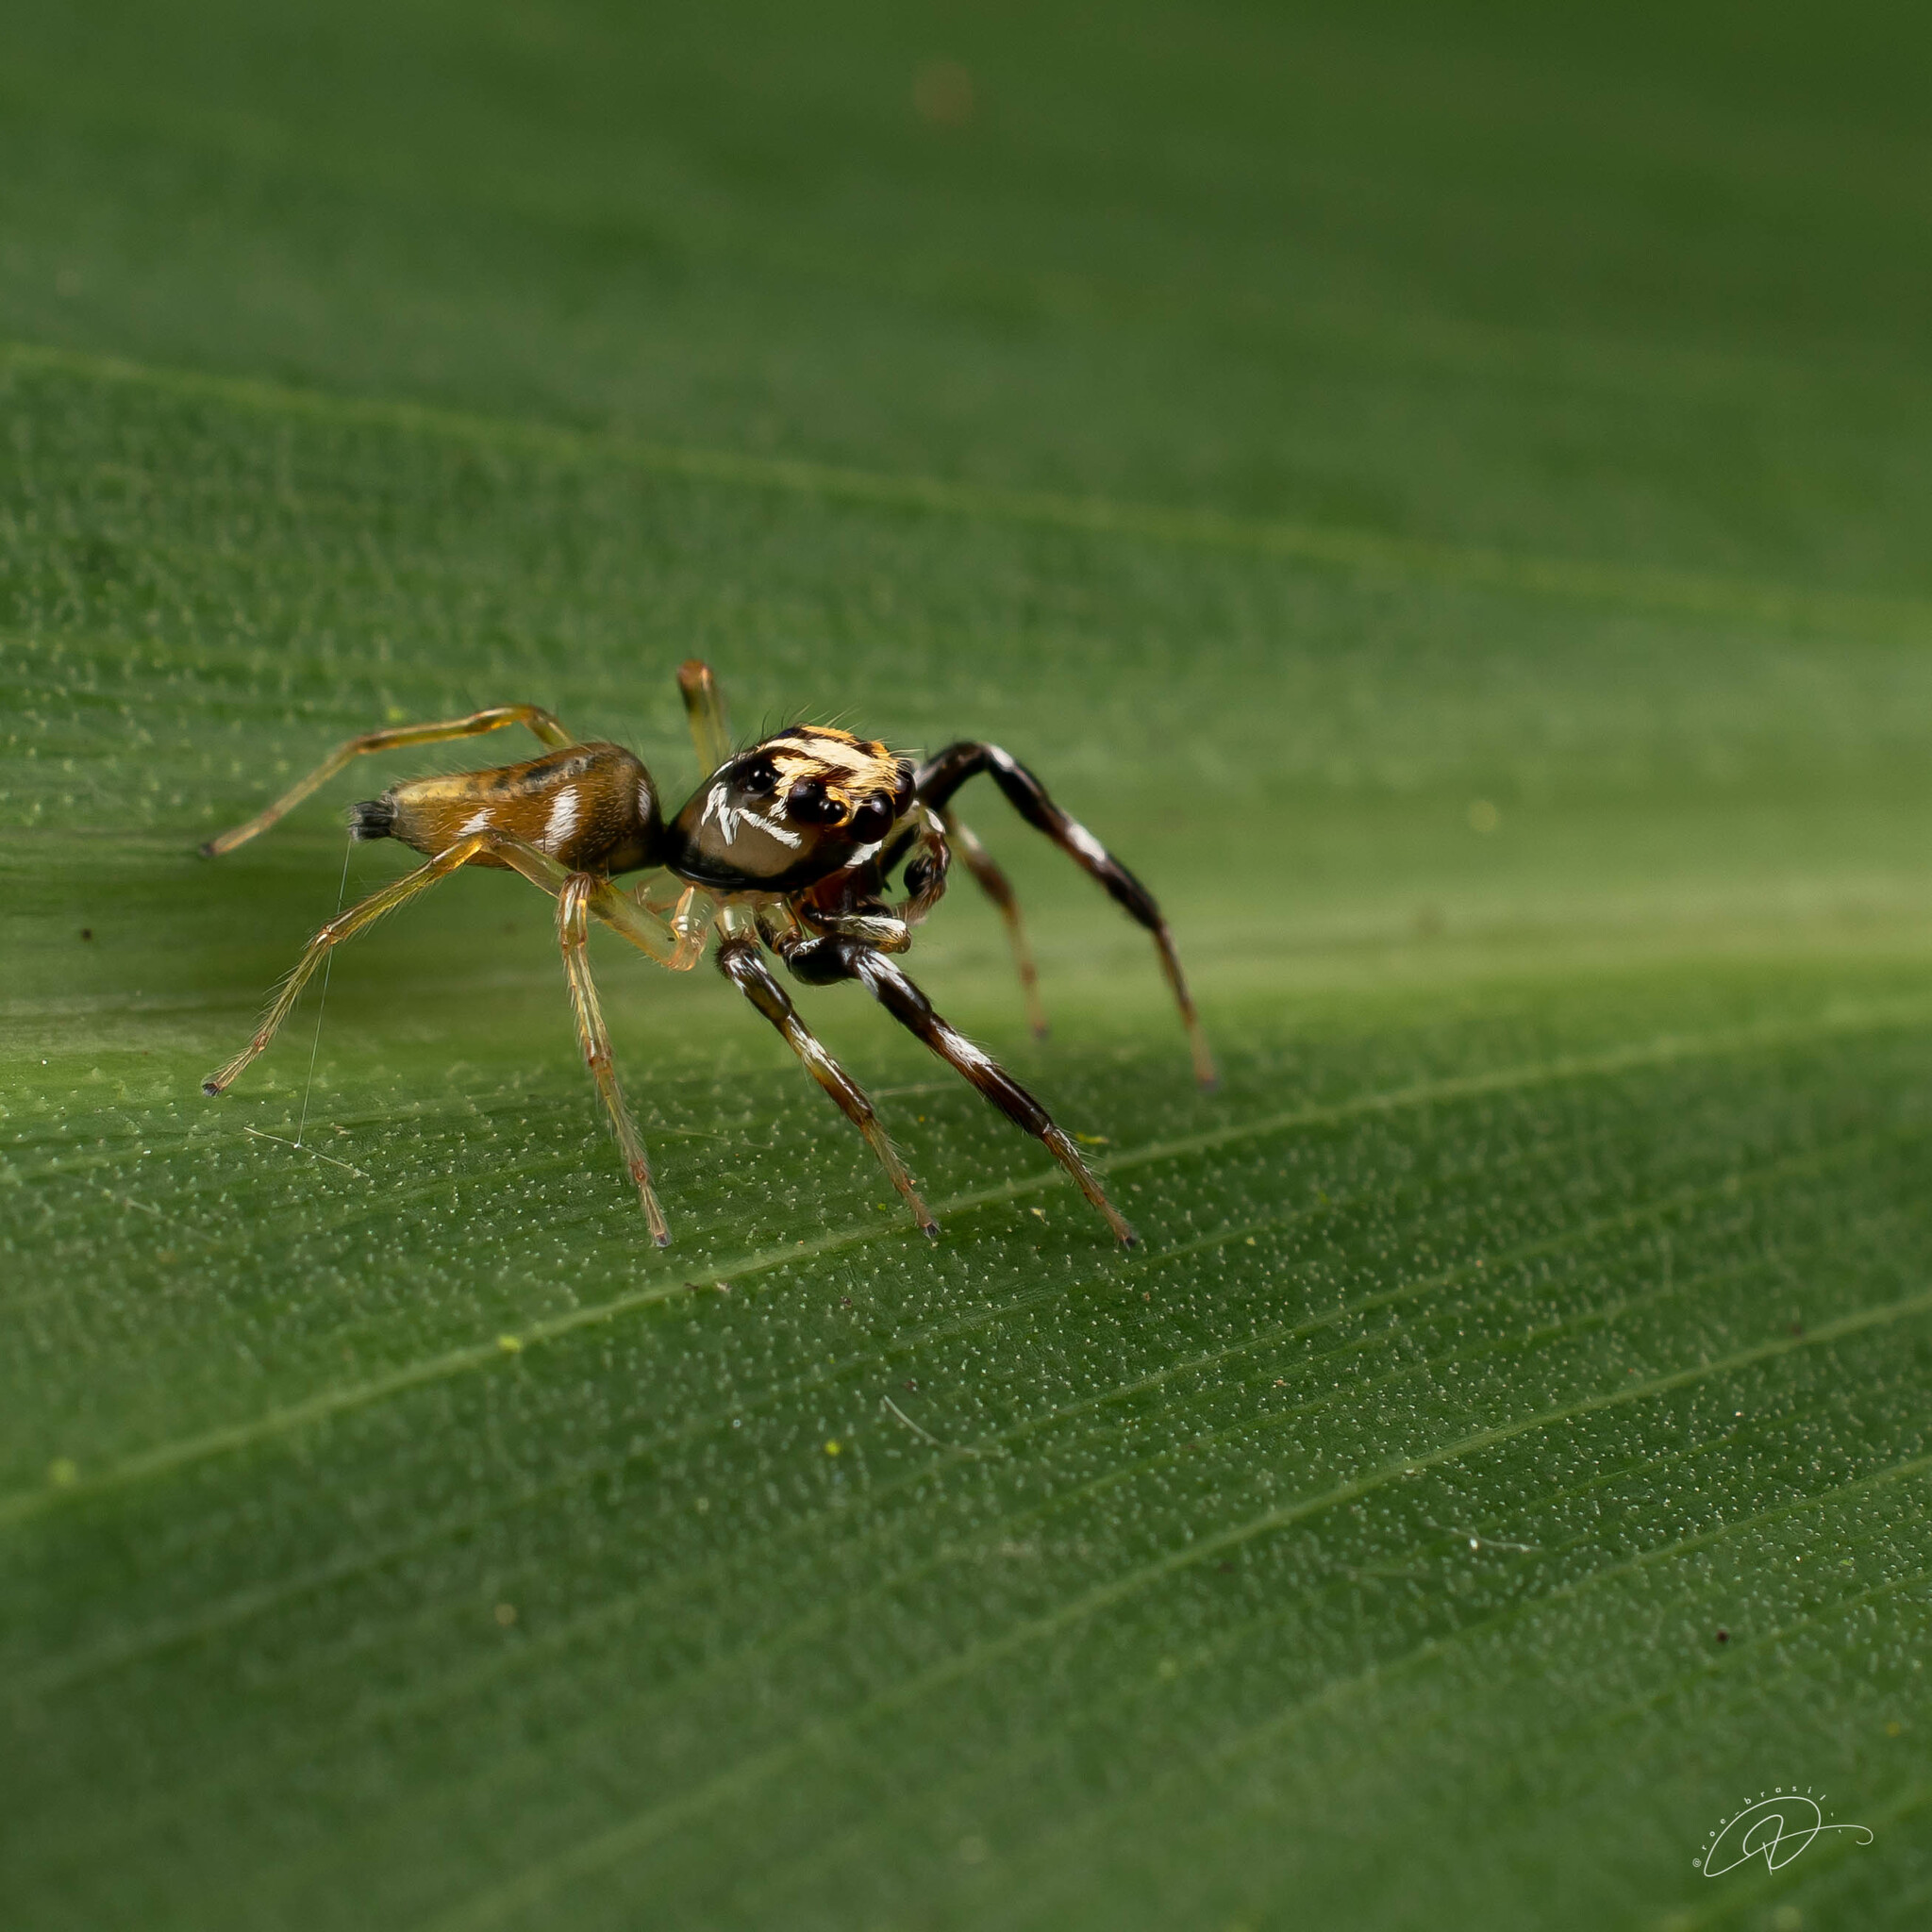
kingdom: Animalia
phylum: Arthropoda
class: Arachnida
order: Araneae
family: Salticidae
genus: Noegus
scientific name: Noegus bidens
